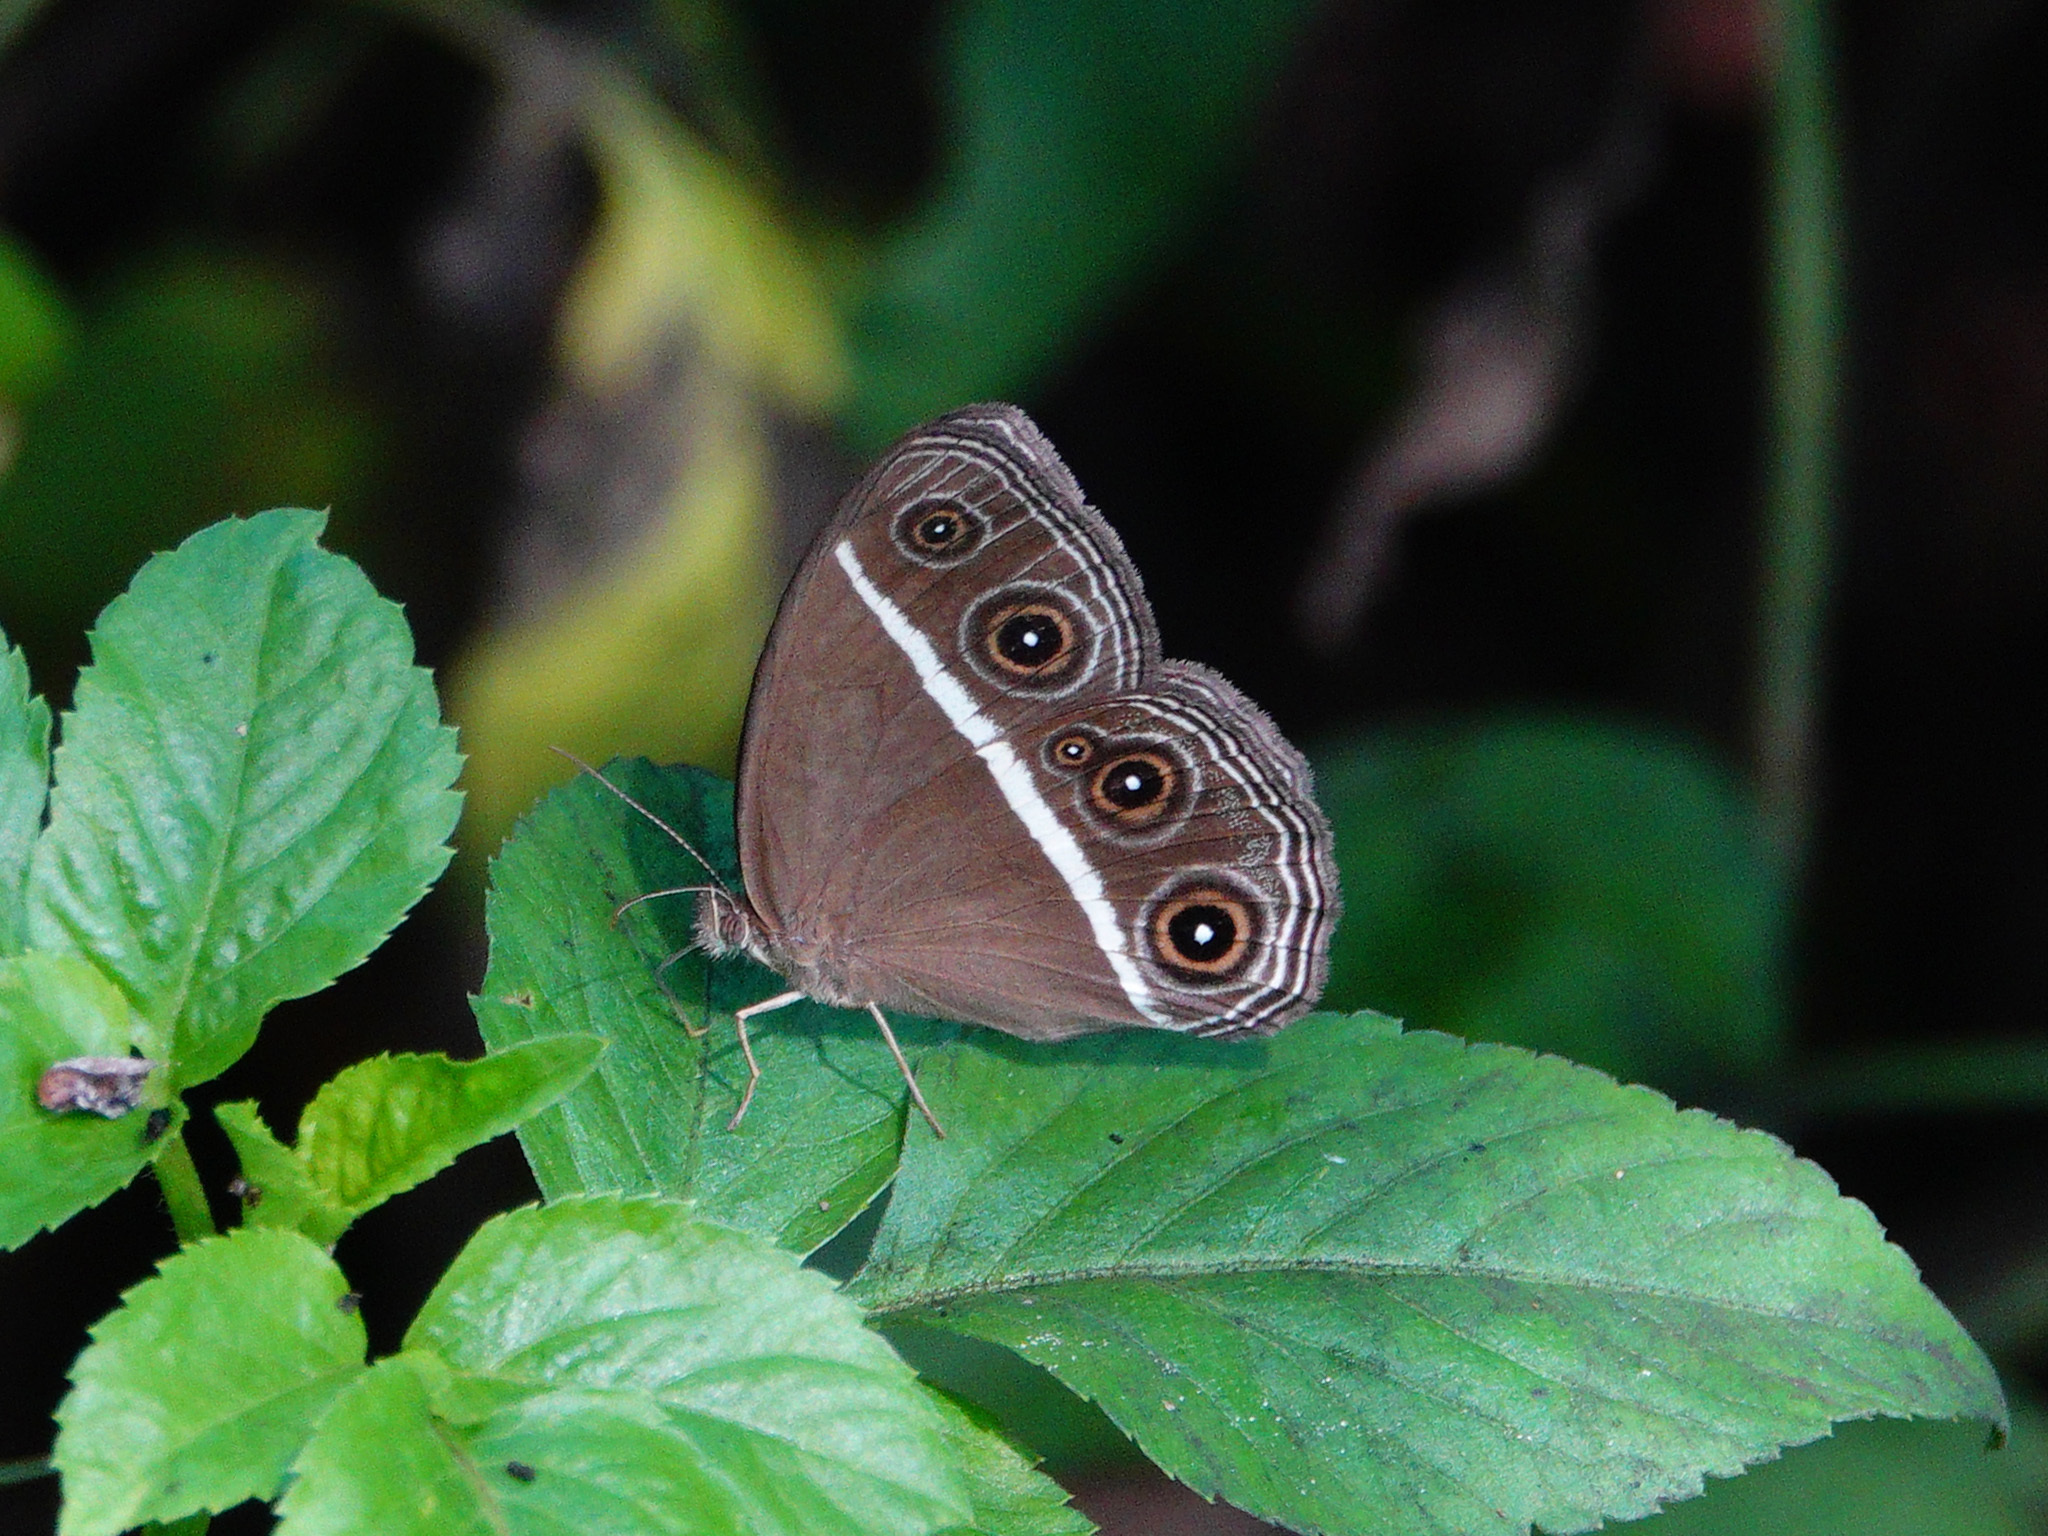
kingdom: Animalia
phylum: Arthropoda
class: Insecta
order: Lepidoptera
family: Nymphalidae
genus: Orsotriaena
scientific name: Orsotriaena medus
